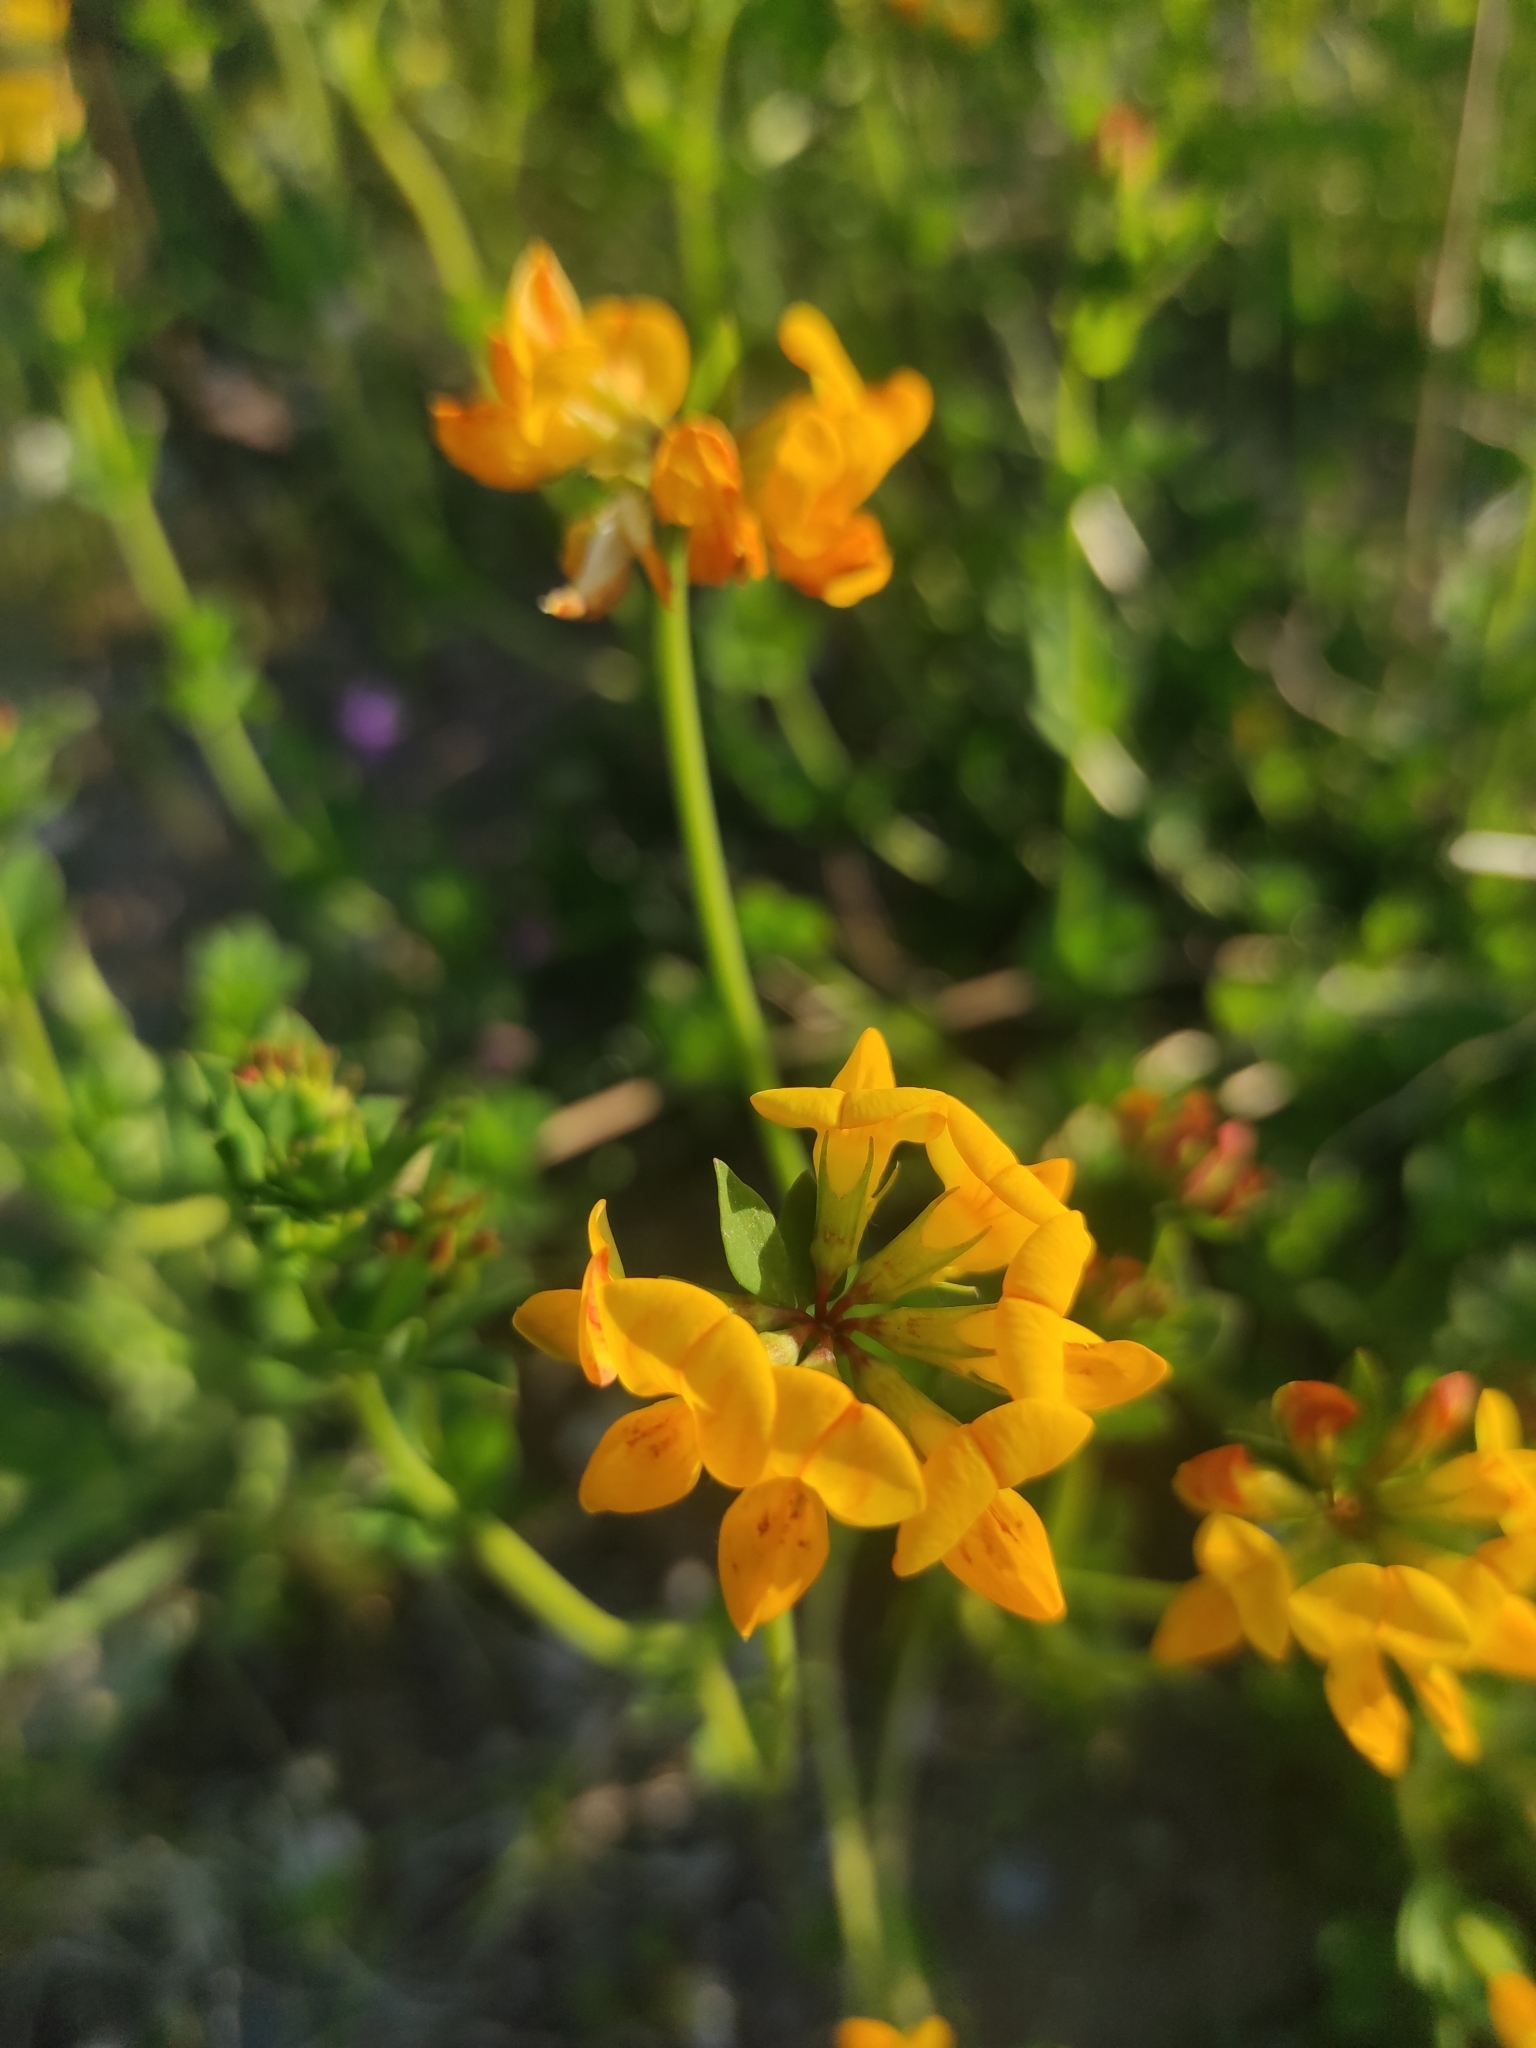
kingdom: Plantae
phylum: Tracheophyta
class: Magnoliopsida
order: Fabales
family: Fabaceae
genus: Lotus
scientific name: Lotus corniculatus
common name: Common bird's-foot-trefoil
